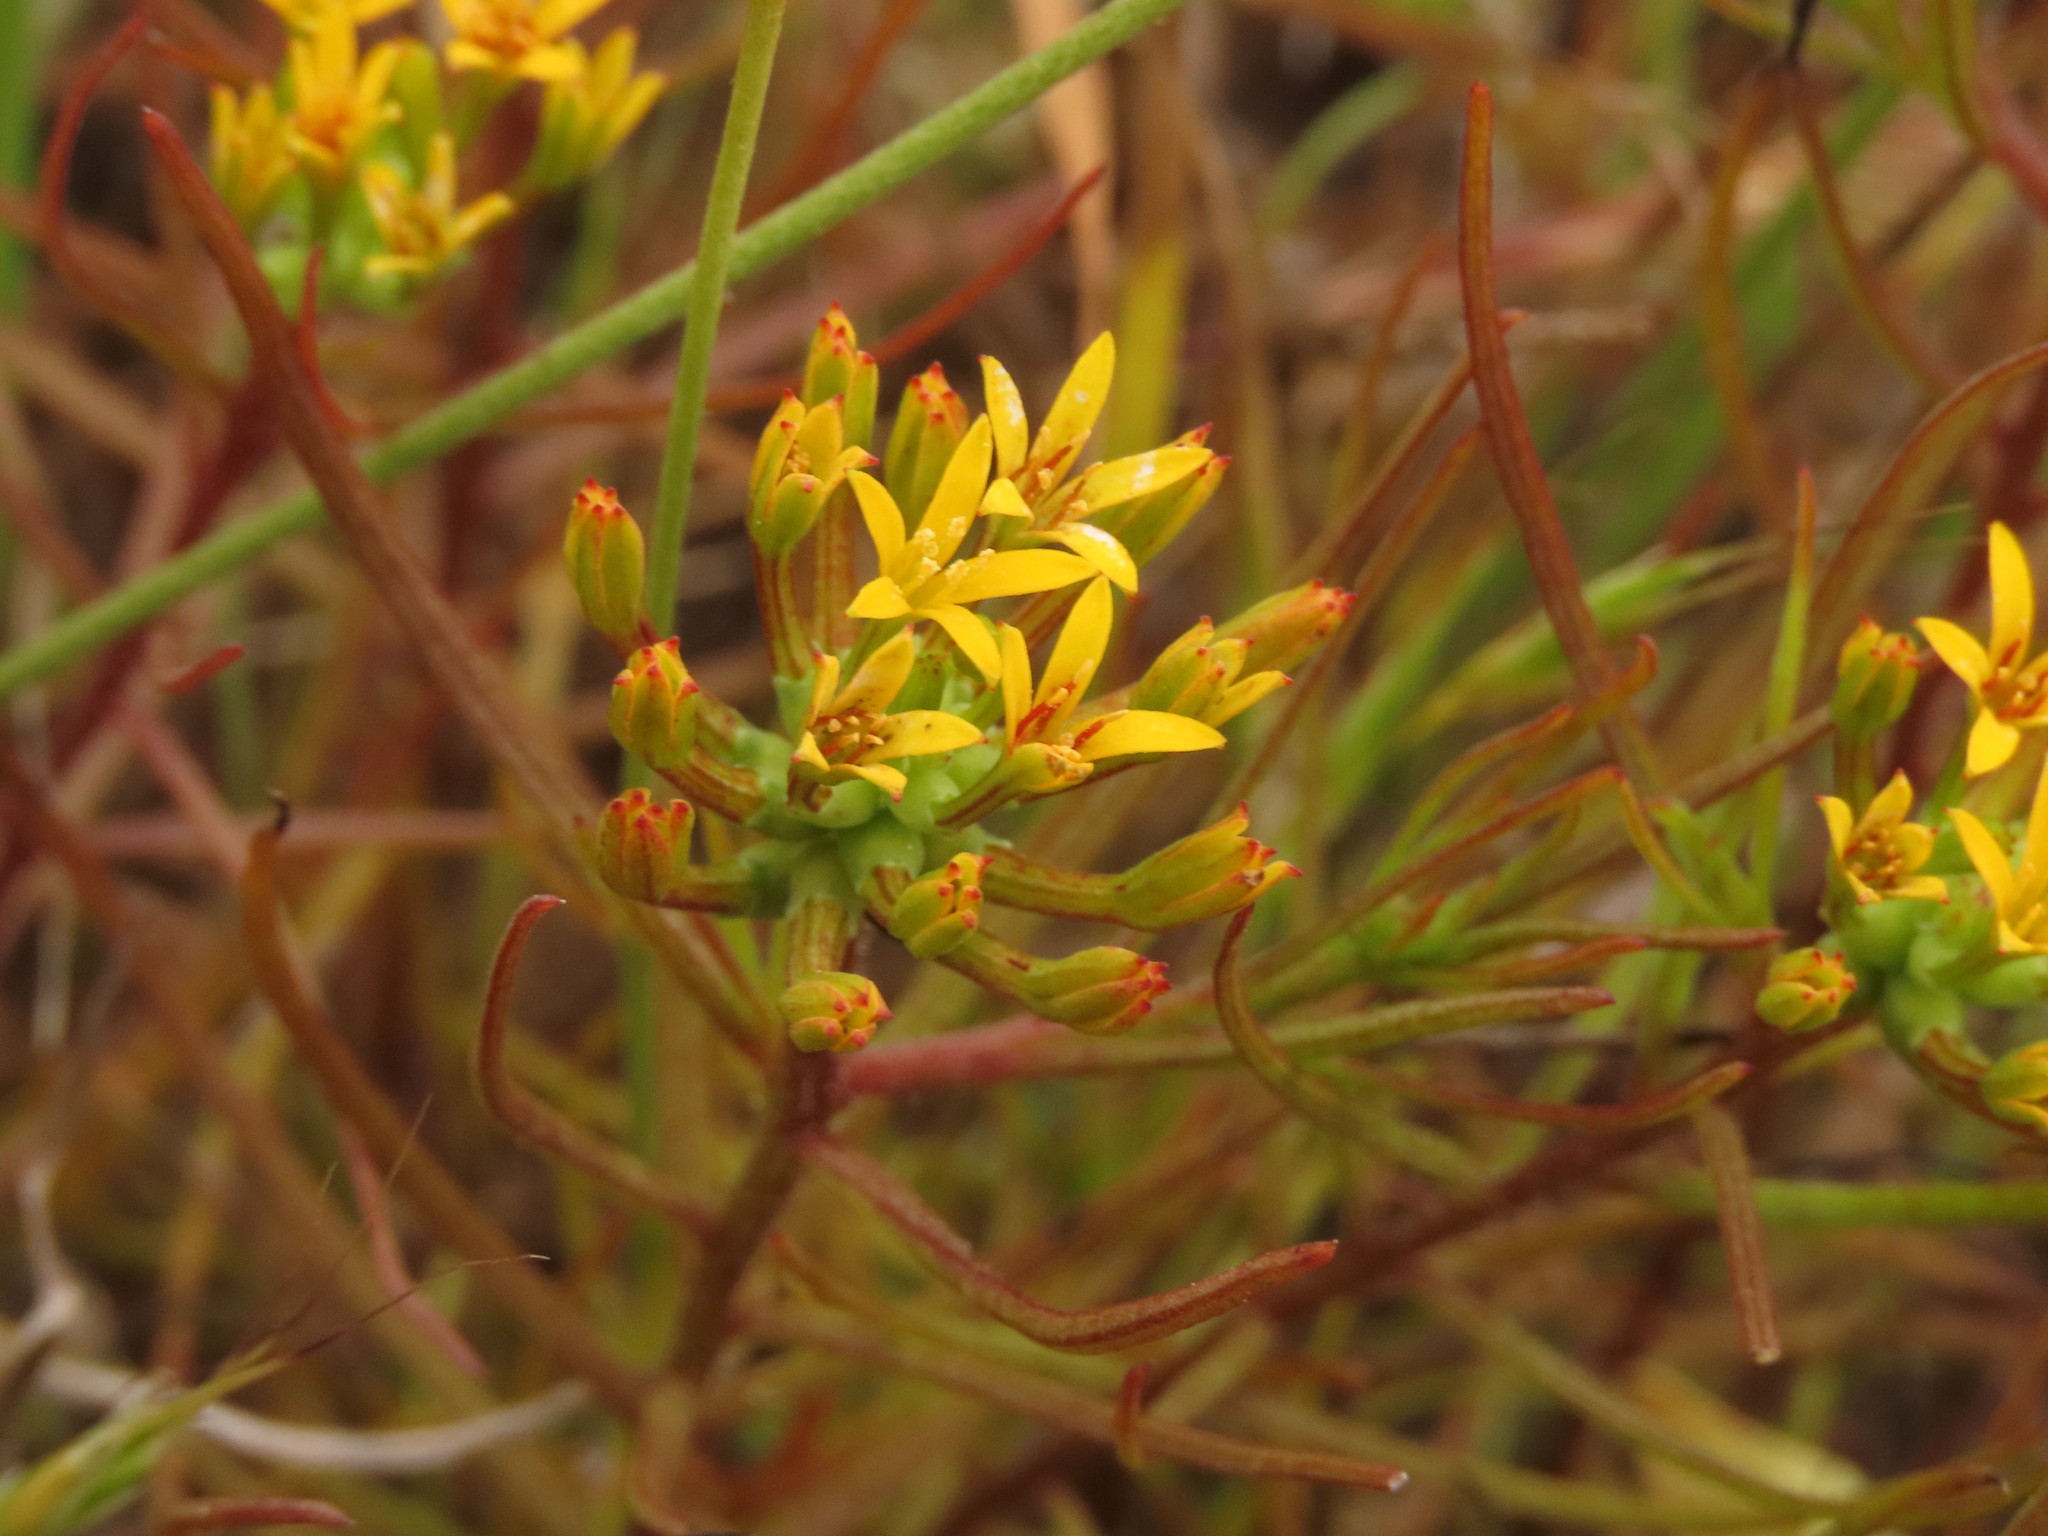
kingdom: Plantae
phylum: Tracheophyta
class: Magnoliopsida
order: Santalales
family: Schoepfiaceae
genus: Quinchamalium
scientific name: Quinchamalium chilense
